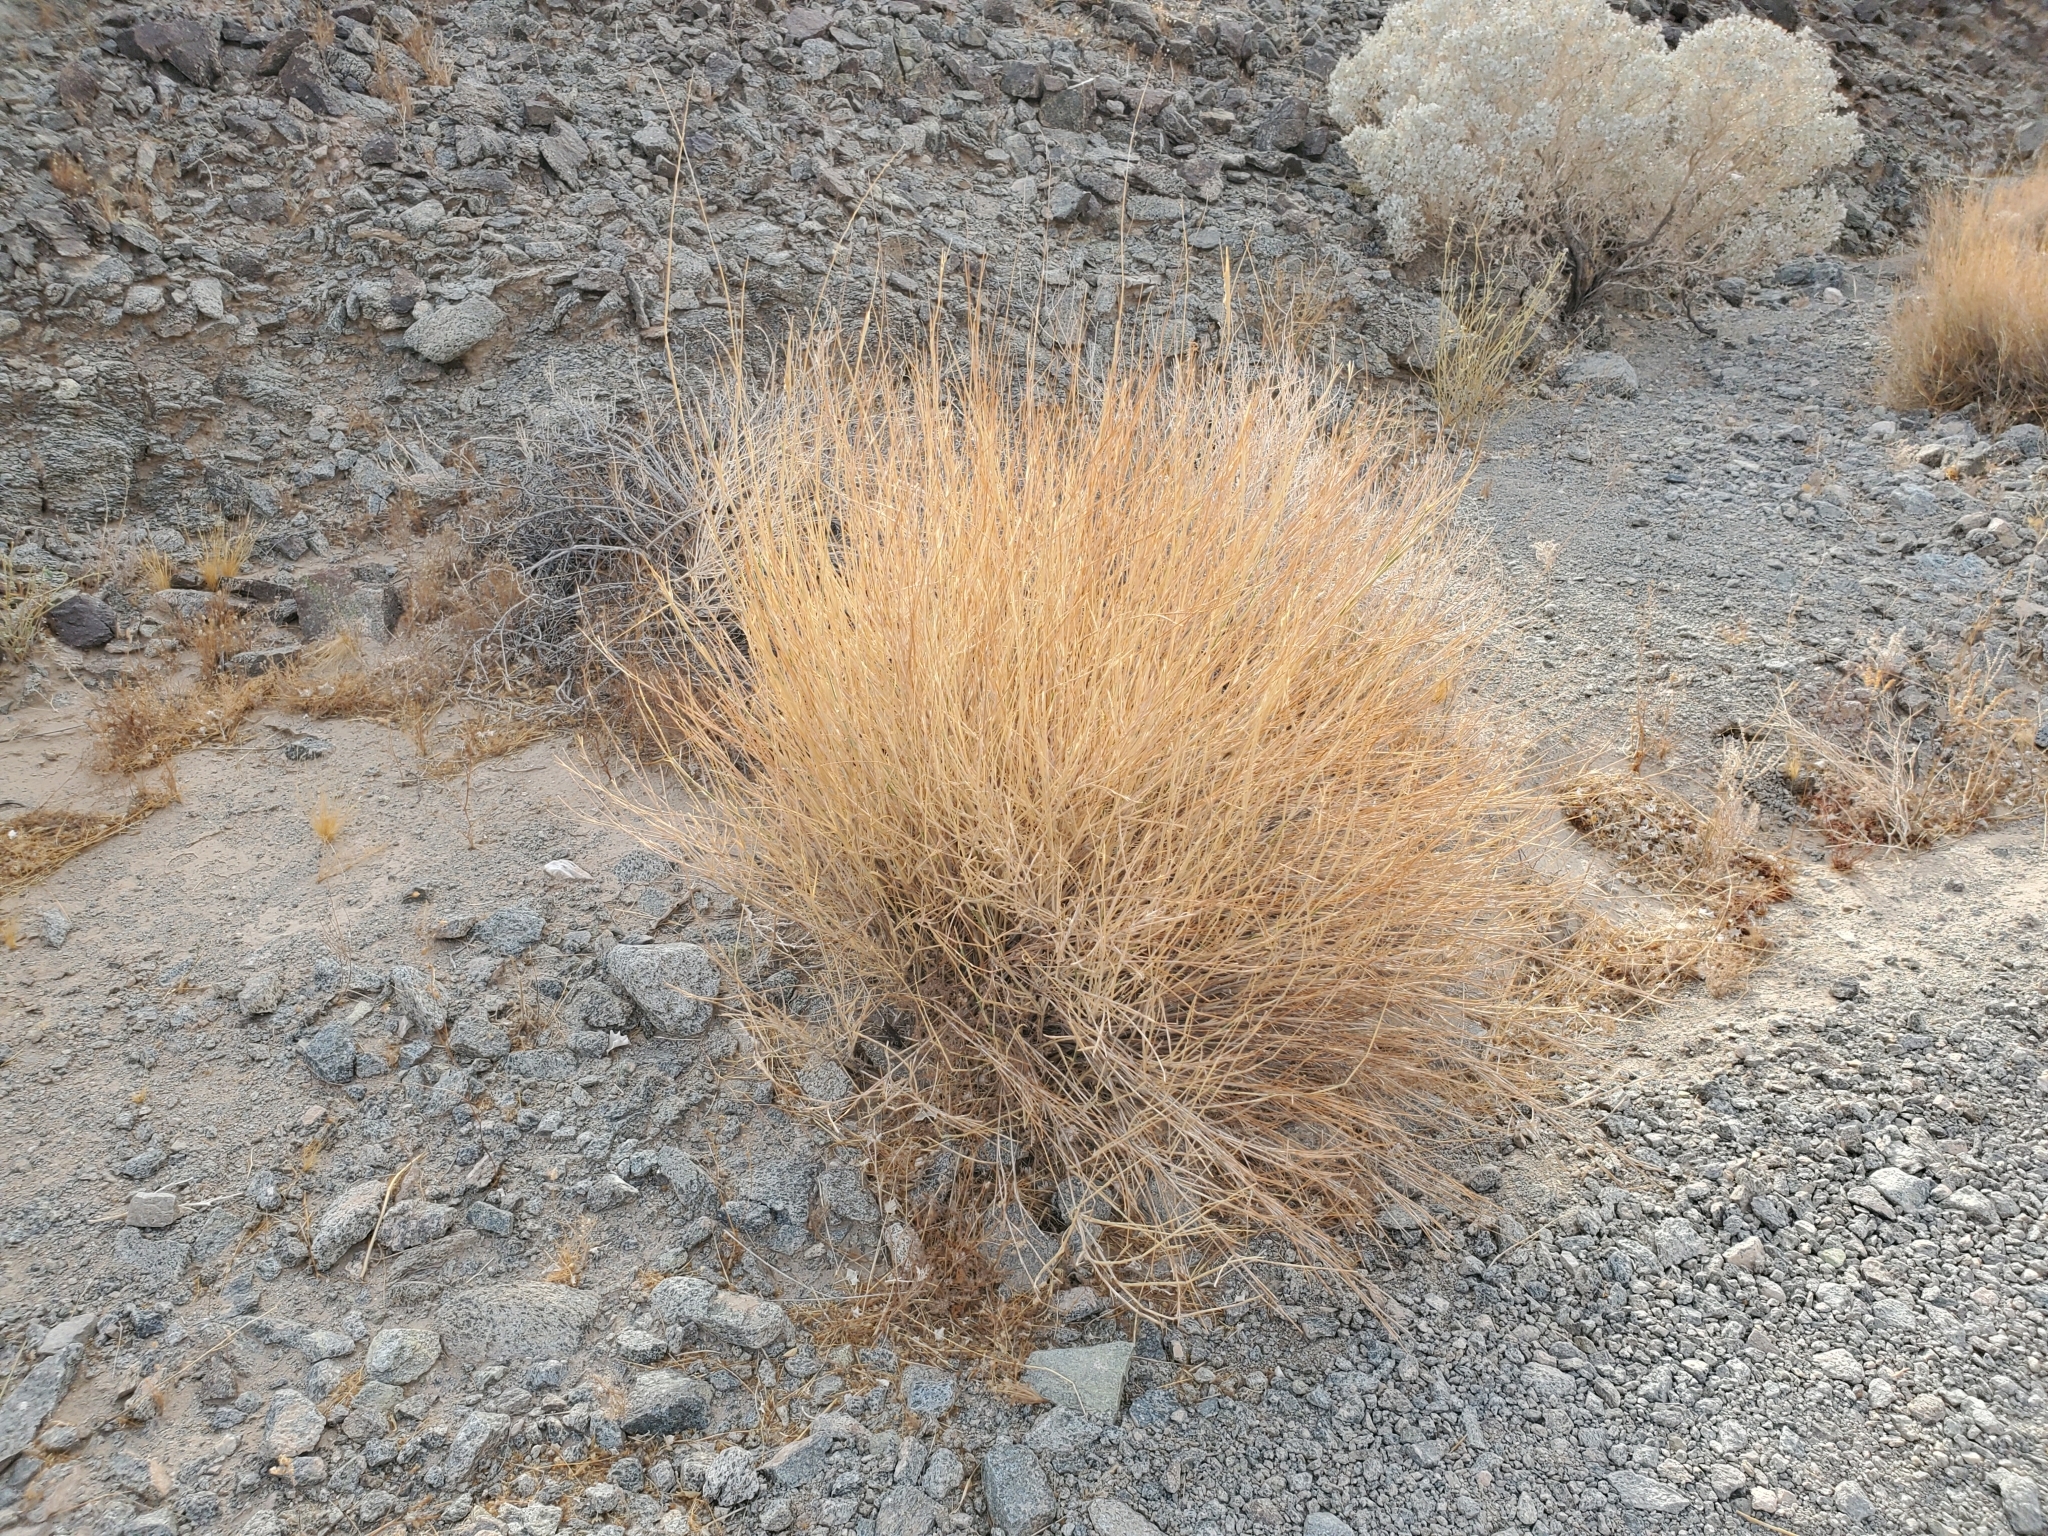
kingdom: Plantae
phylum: Tracheophyta
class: Liliopsida
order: Poales
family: Poaceae
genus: Hilaria
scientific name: Hilaria rigida
